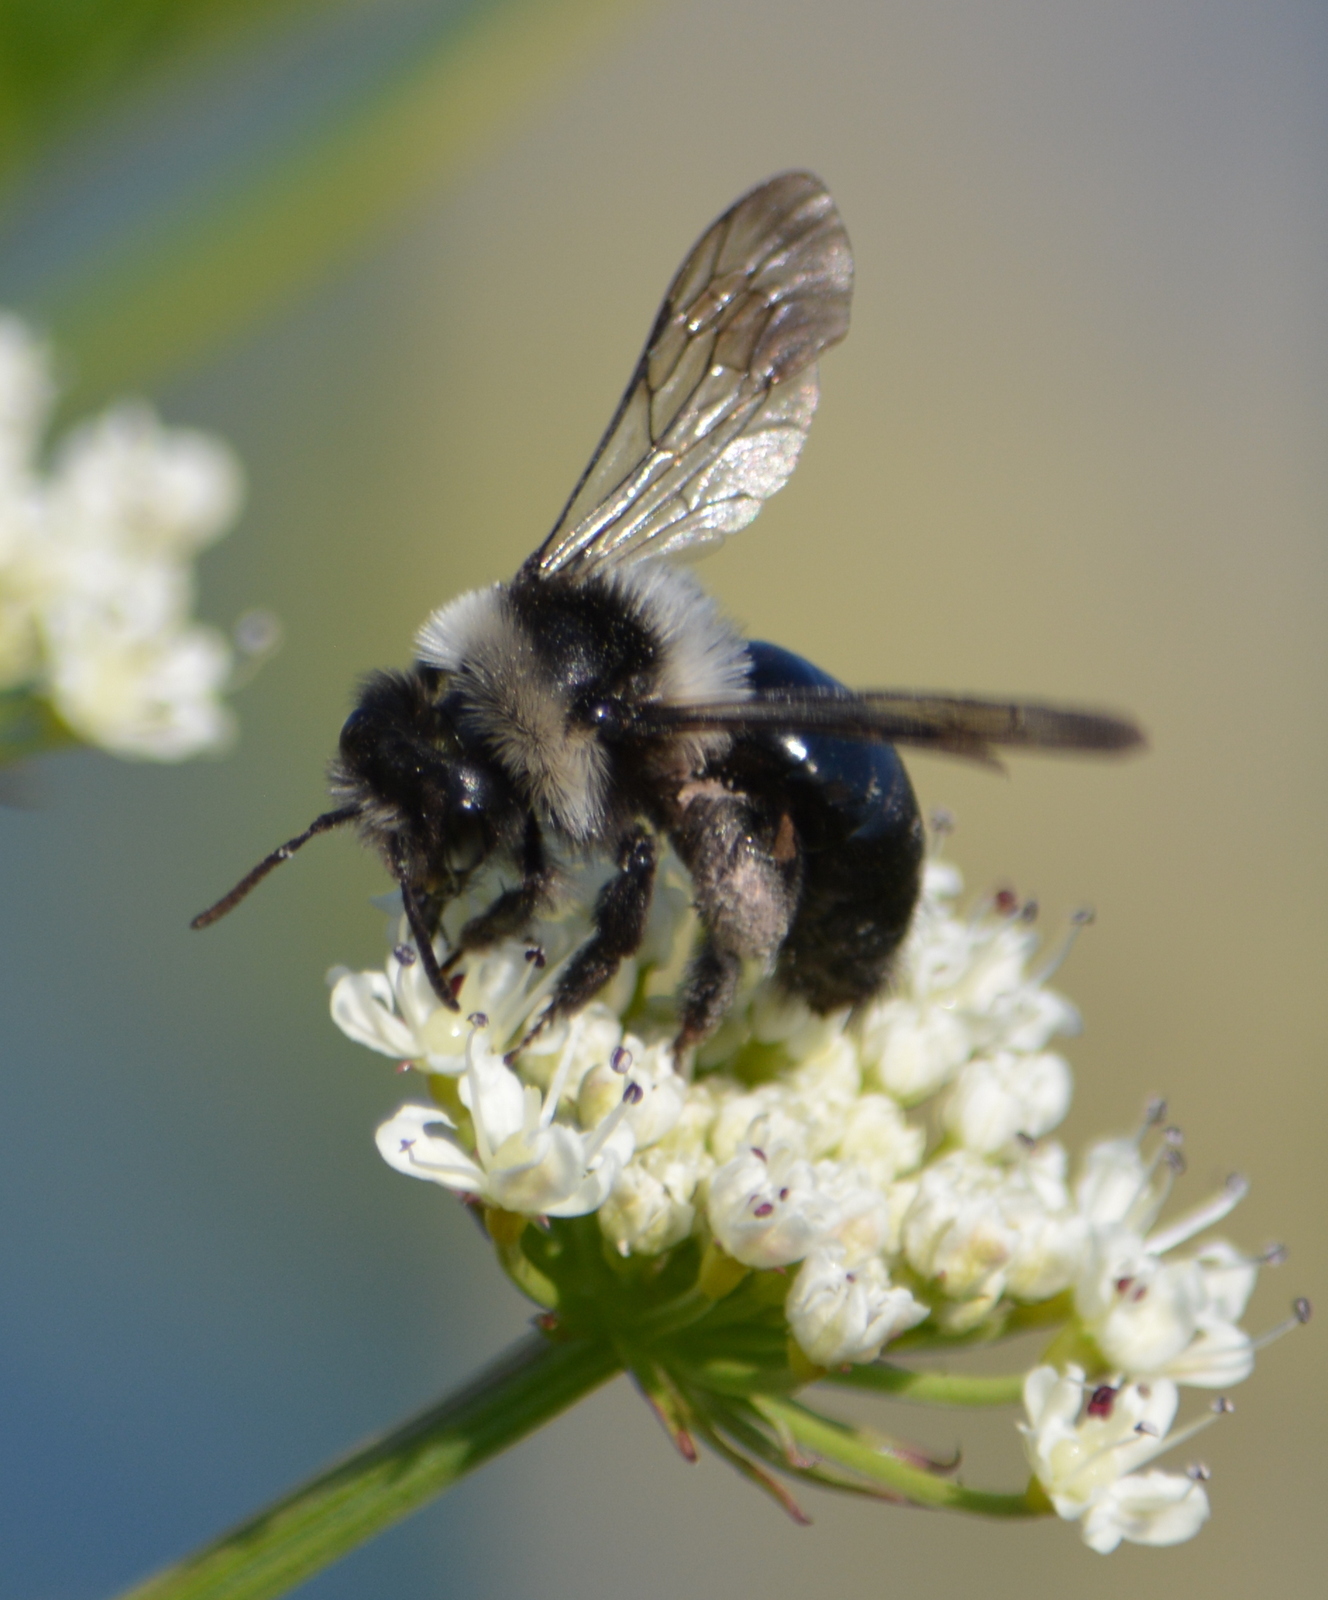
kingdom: Animalia
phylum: Arthropoda
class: Insecta
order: Hymenoptera
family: Andrenidae
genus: Andrena
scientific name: Andrena cineraria
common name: Ashy mining bee
